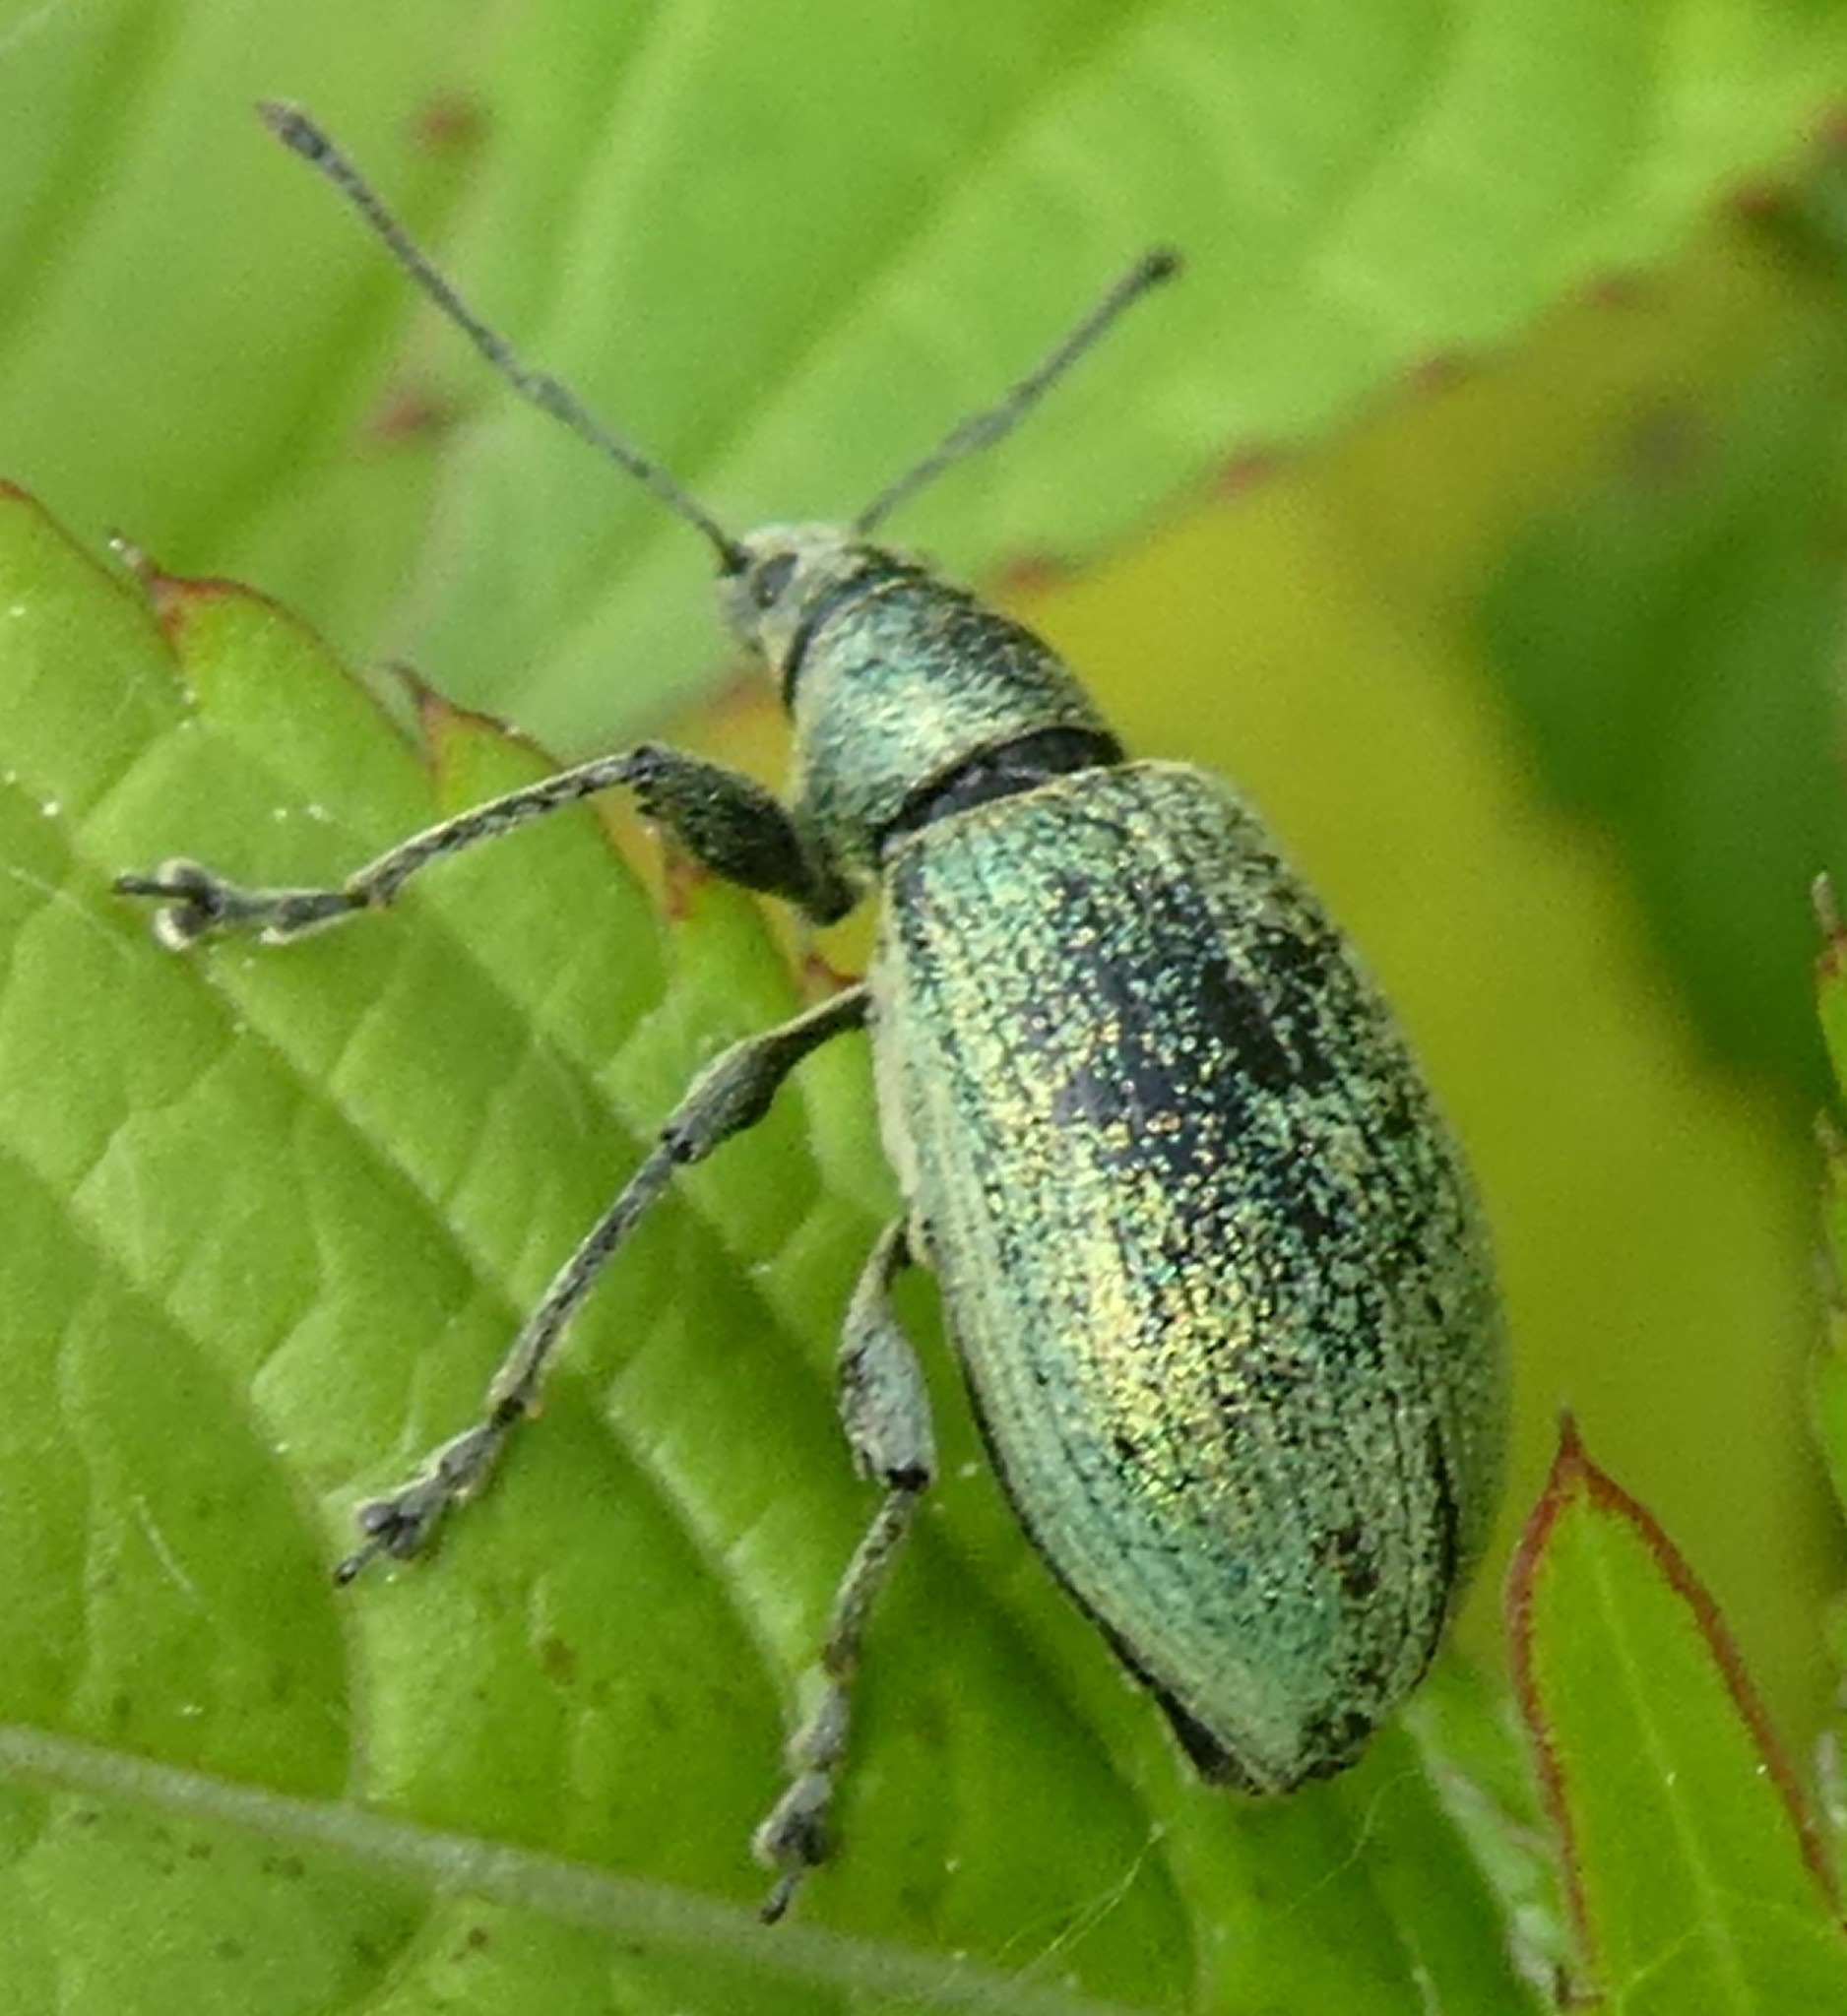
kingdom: Animalia
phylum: Arthropoda
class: Insecta
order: Coleoptera
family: Curculionidae
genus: Phyllobius
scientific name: Phyllobius pomaceus
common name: Green nettle weevil
